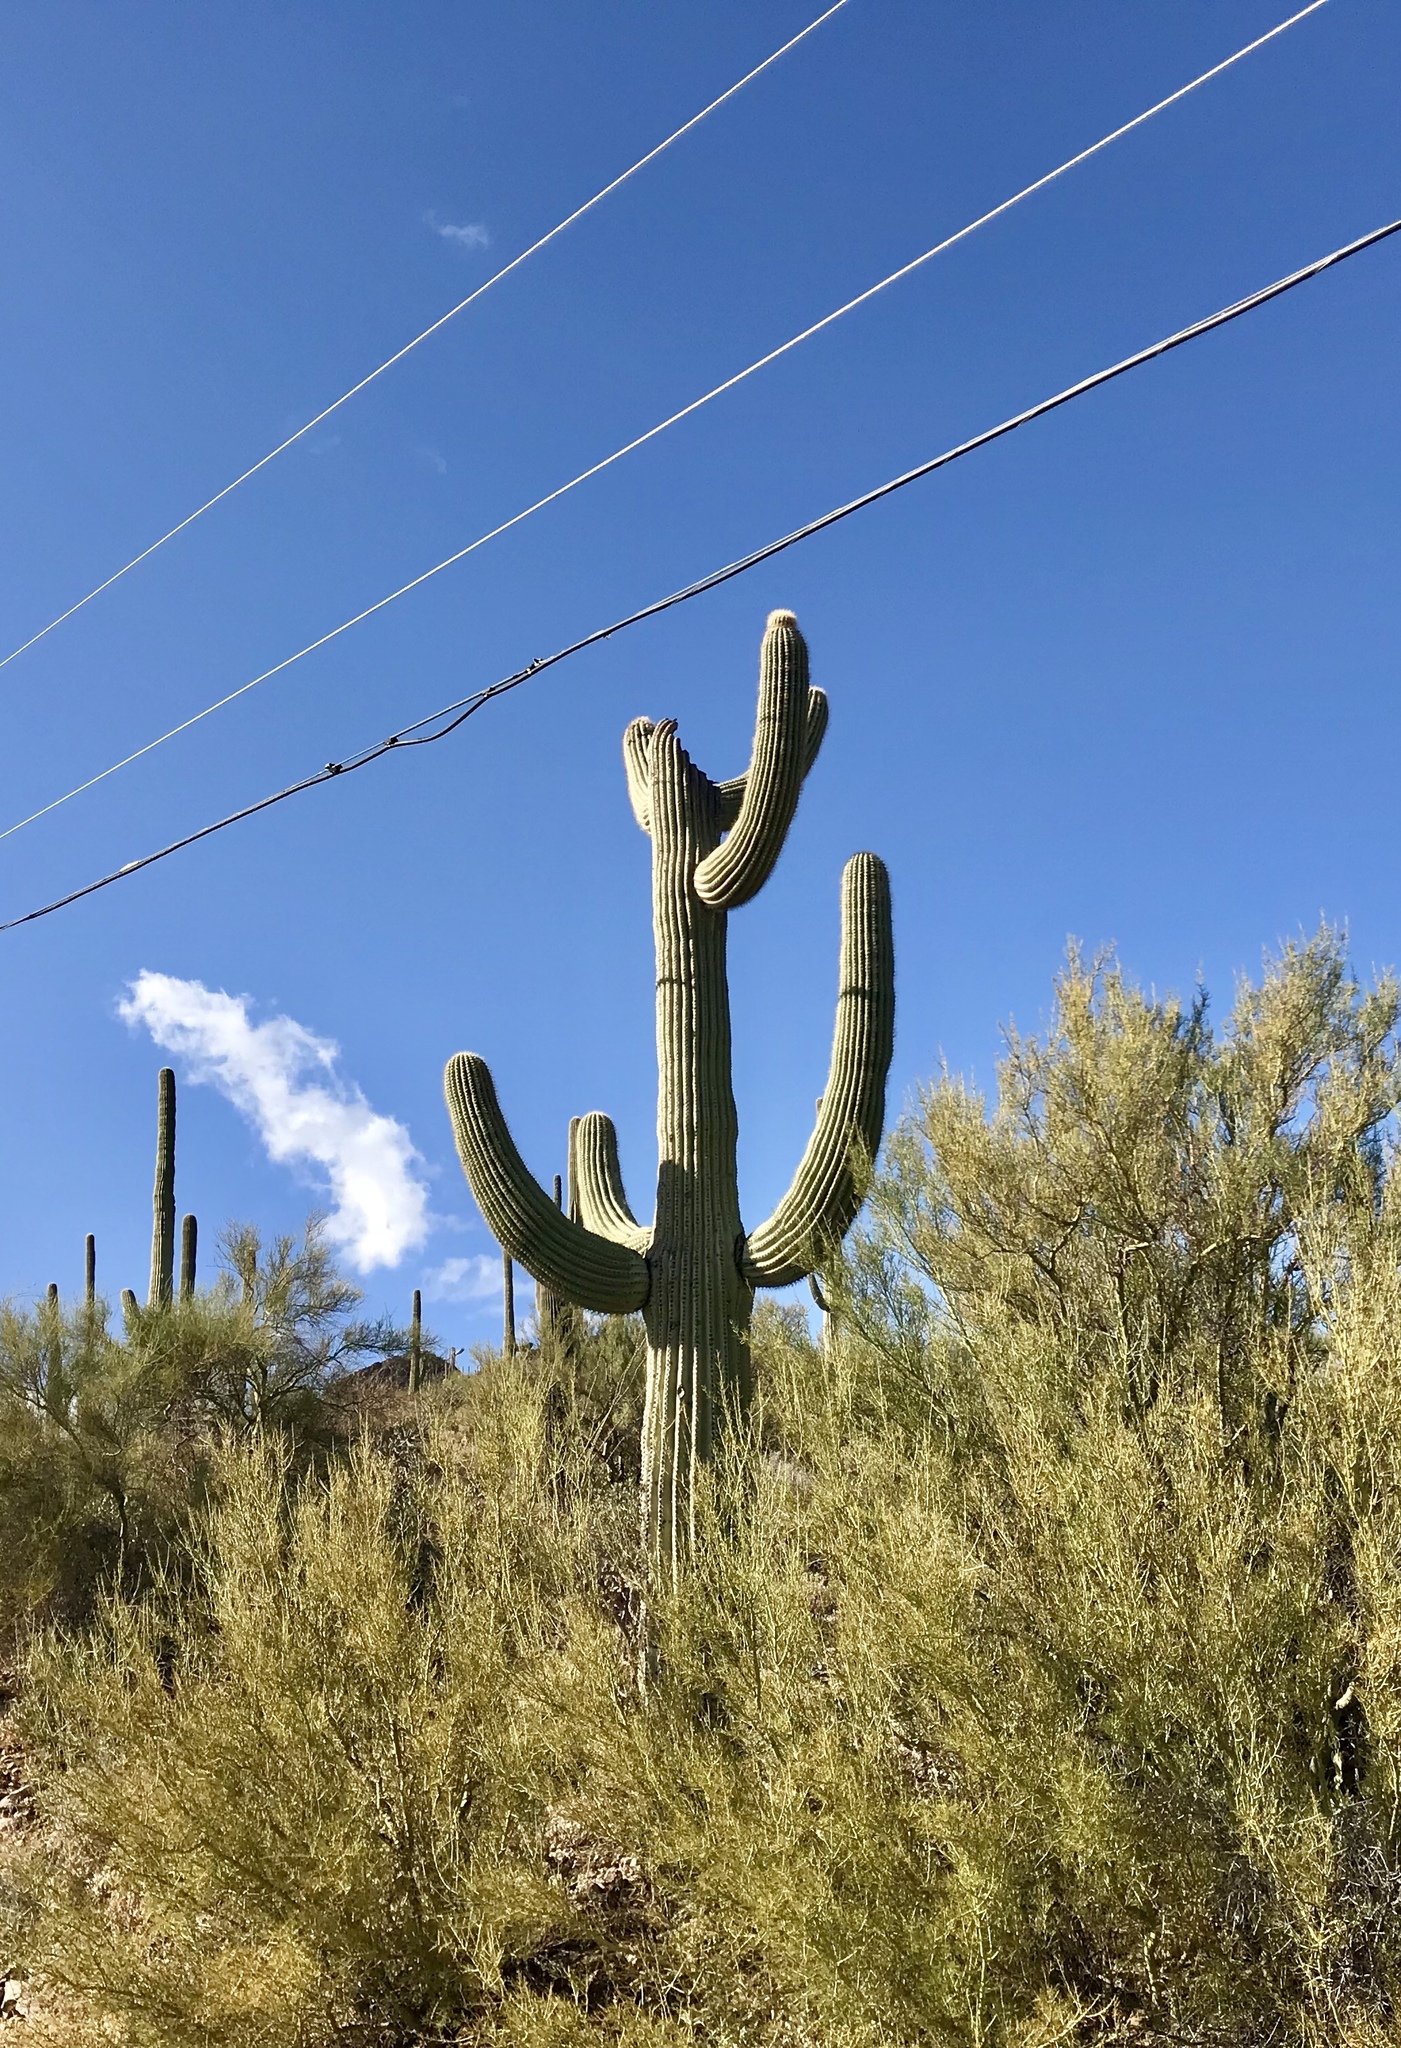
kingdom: Plantae
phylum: Tracheophyta
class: Magnoliopsida
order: Caryophyllales
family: Cactaceae
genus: Carnegiea
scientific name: Carnegiea gigantea
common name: Saguaro
